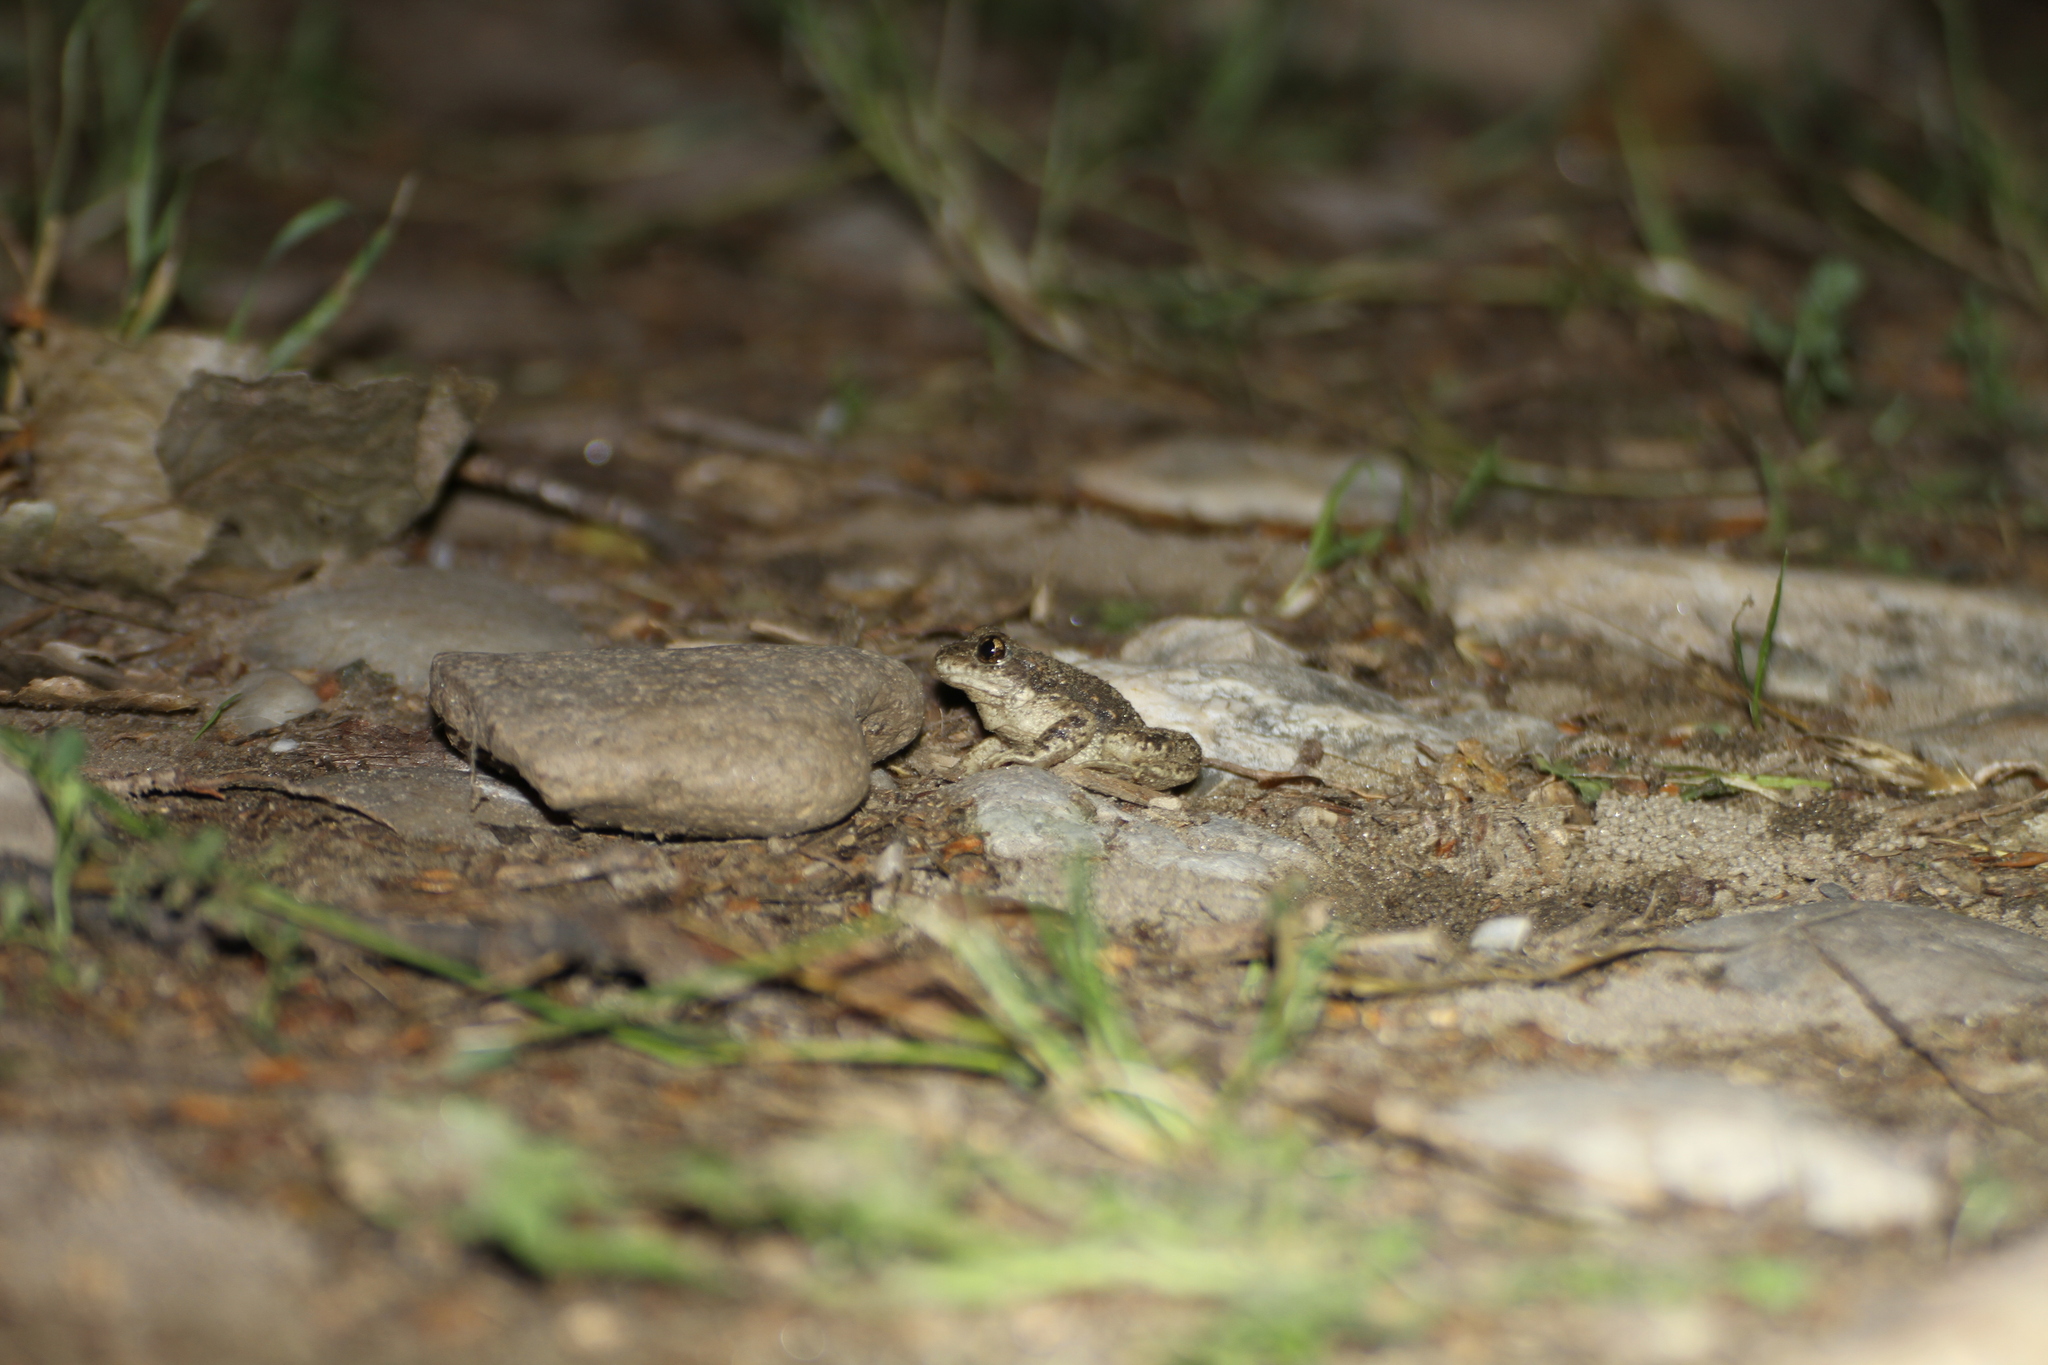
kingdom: Animalia
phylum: Chordata
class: Amphibia
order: Anura
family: Alytidae
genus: Alytes
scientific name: Alytes obstetricans
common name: Midwife toad
